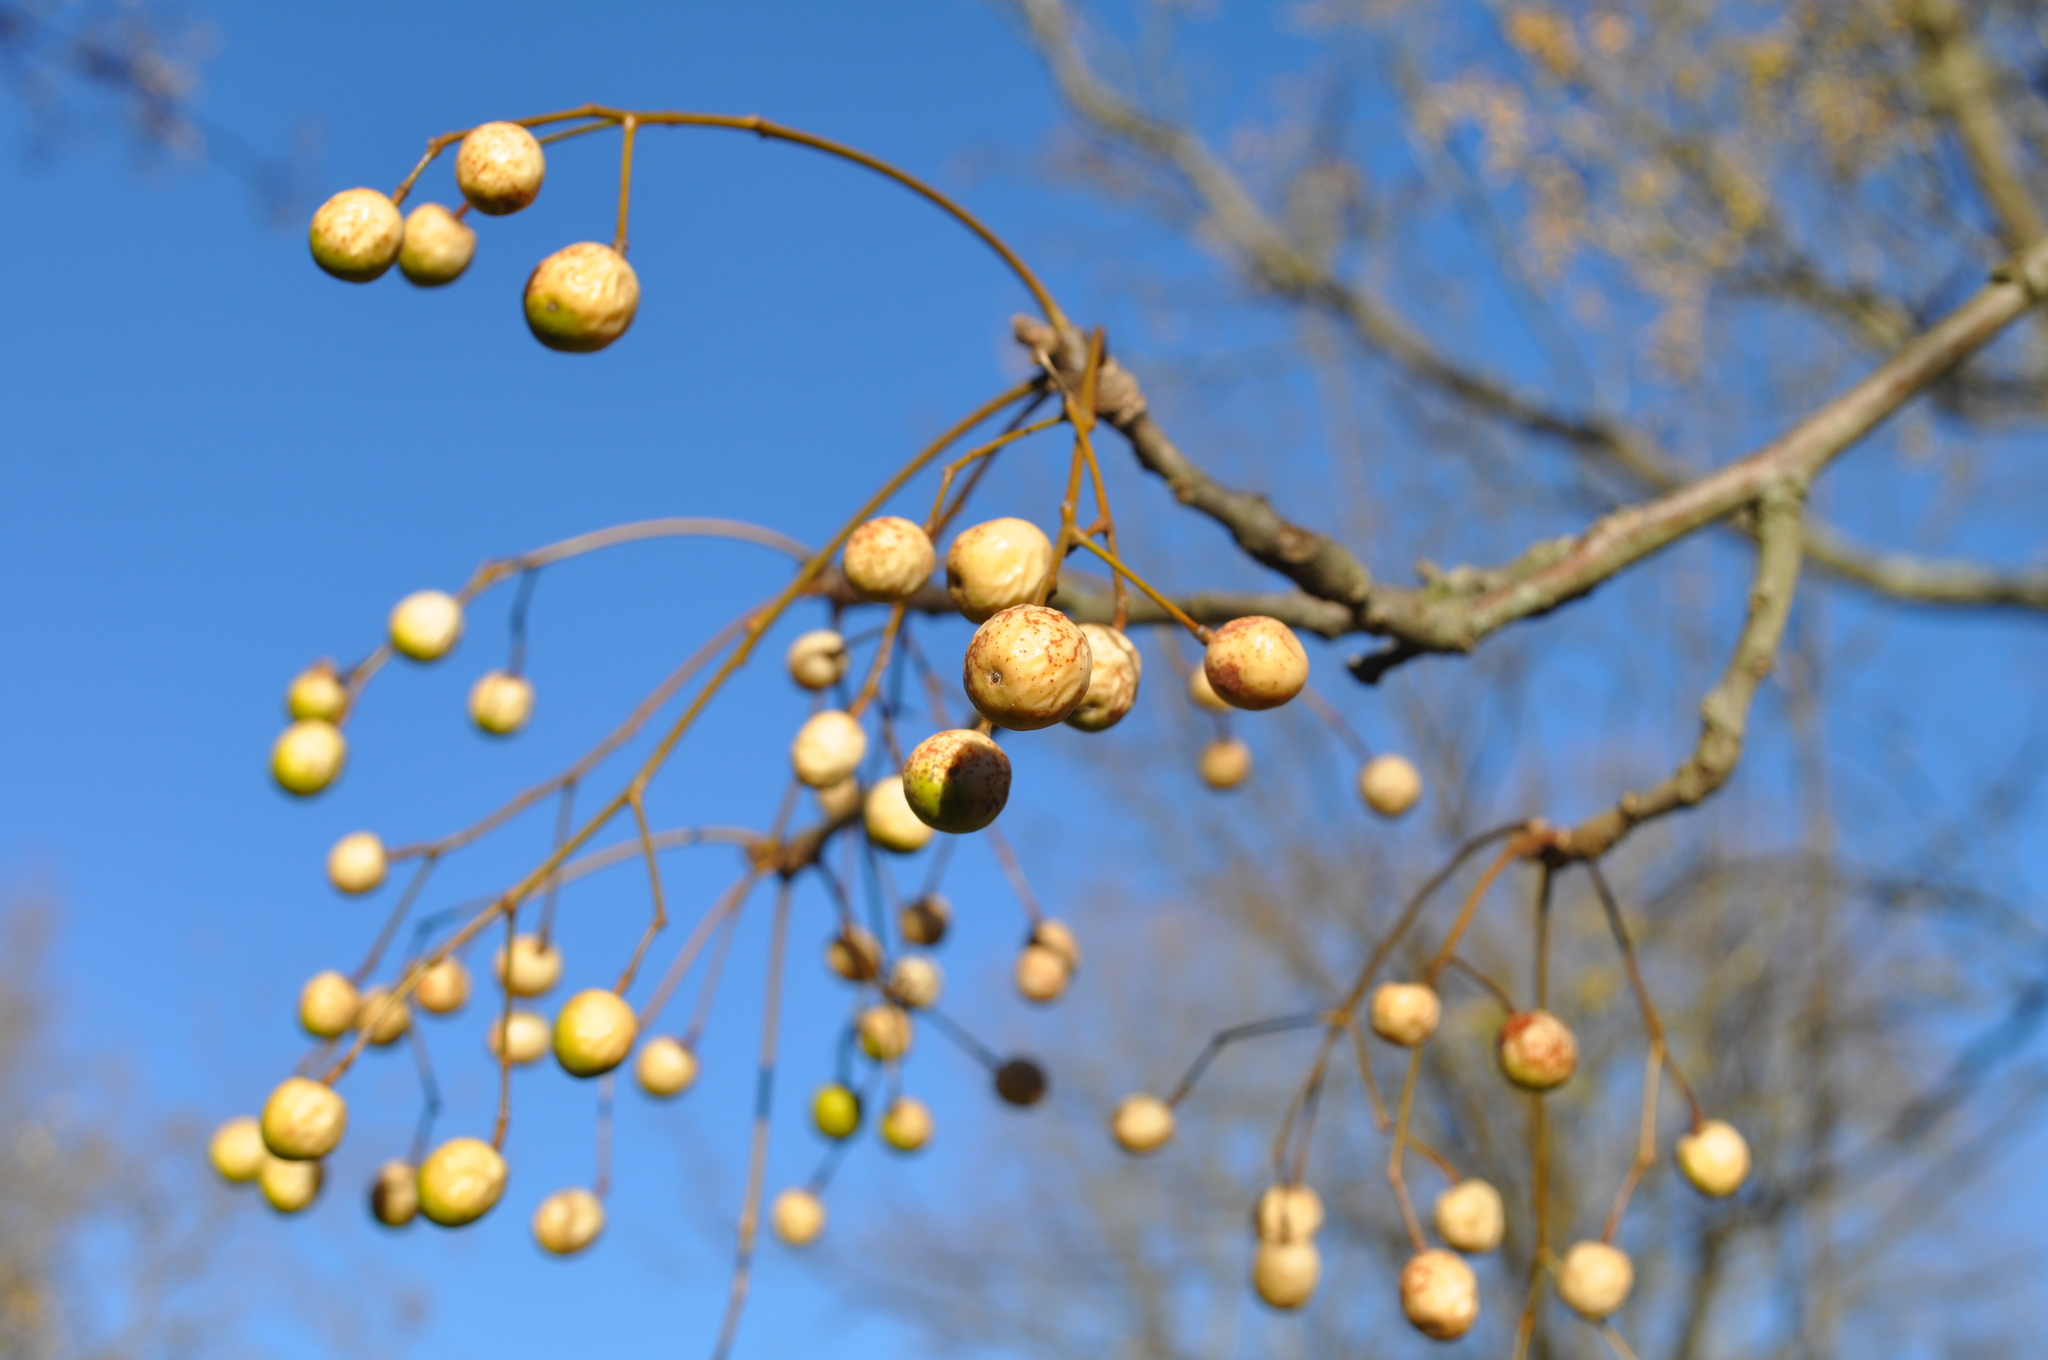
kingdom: Plantae
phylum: Tracheophyta
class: Magnoliopsida
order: Sapindales
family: Meliaceae
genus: Melia
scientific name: Melia azedarach
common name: Chinaberrytree
